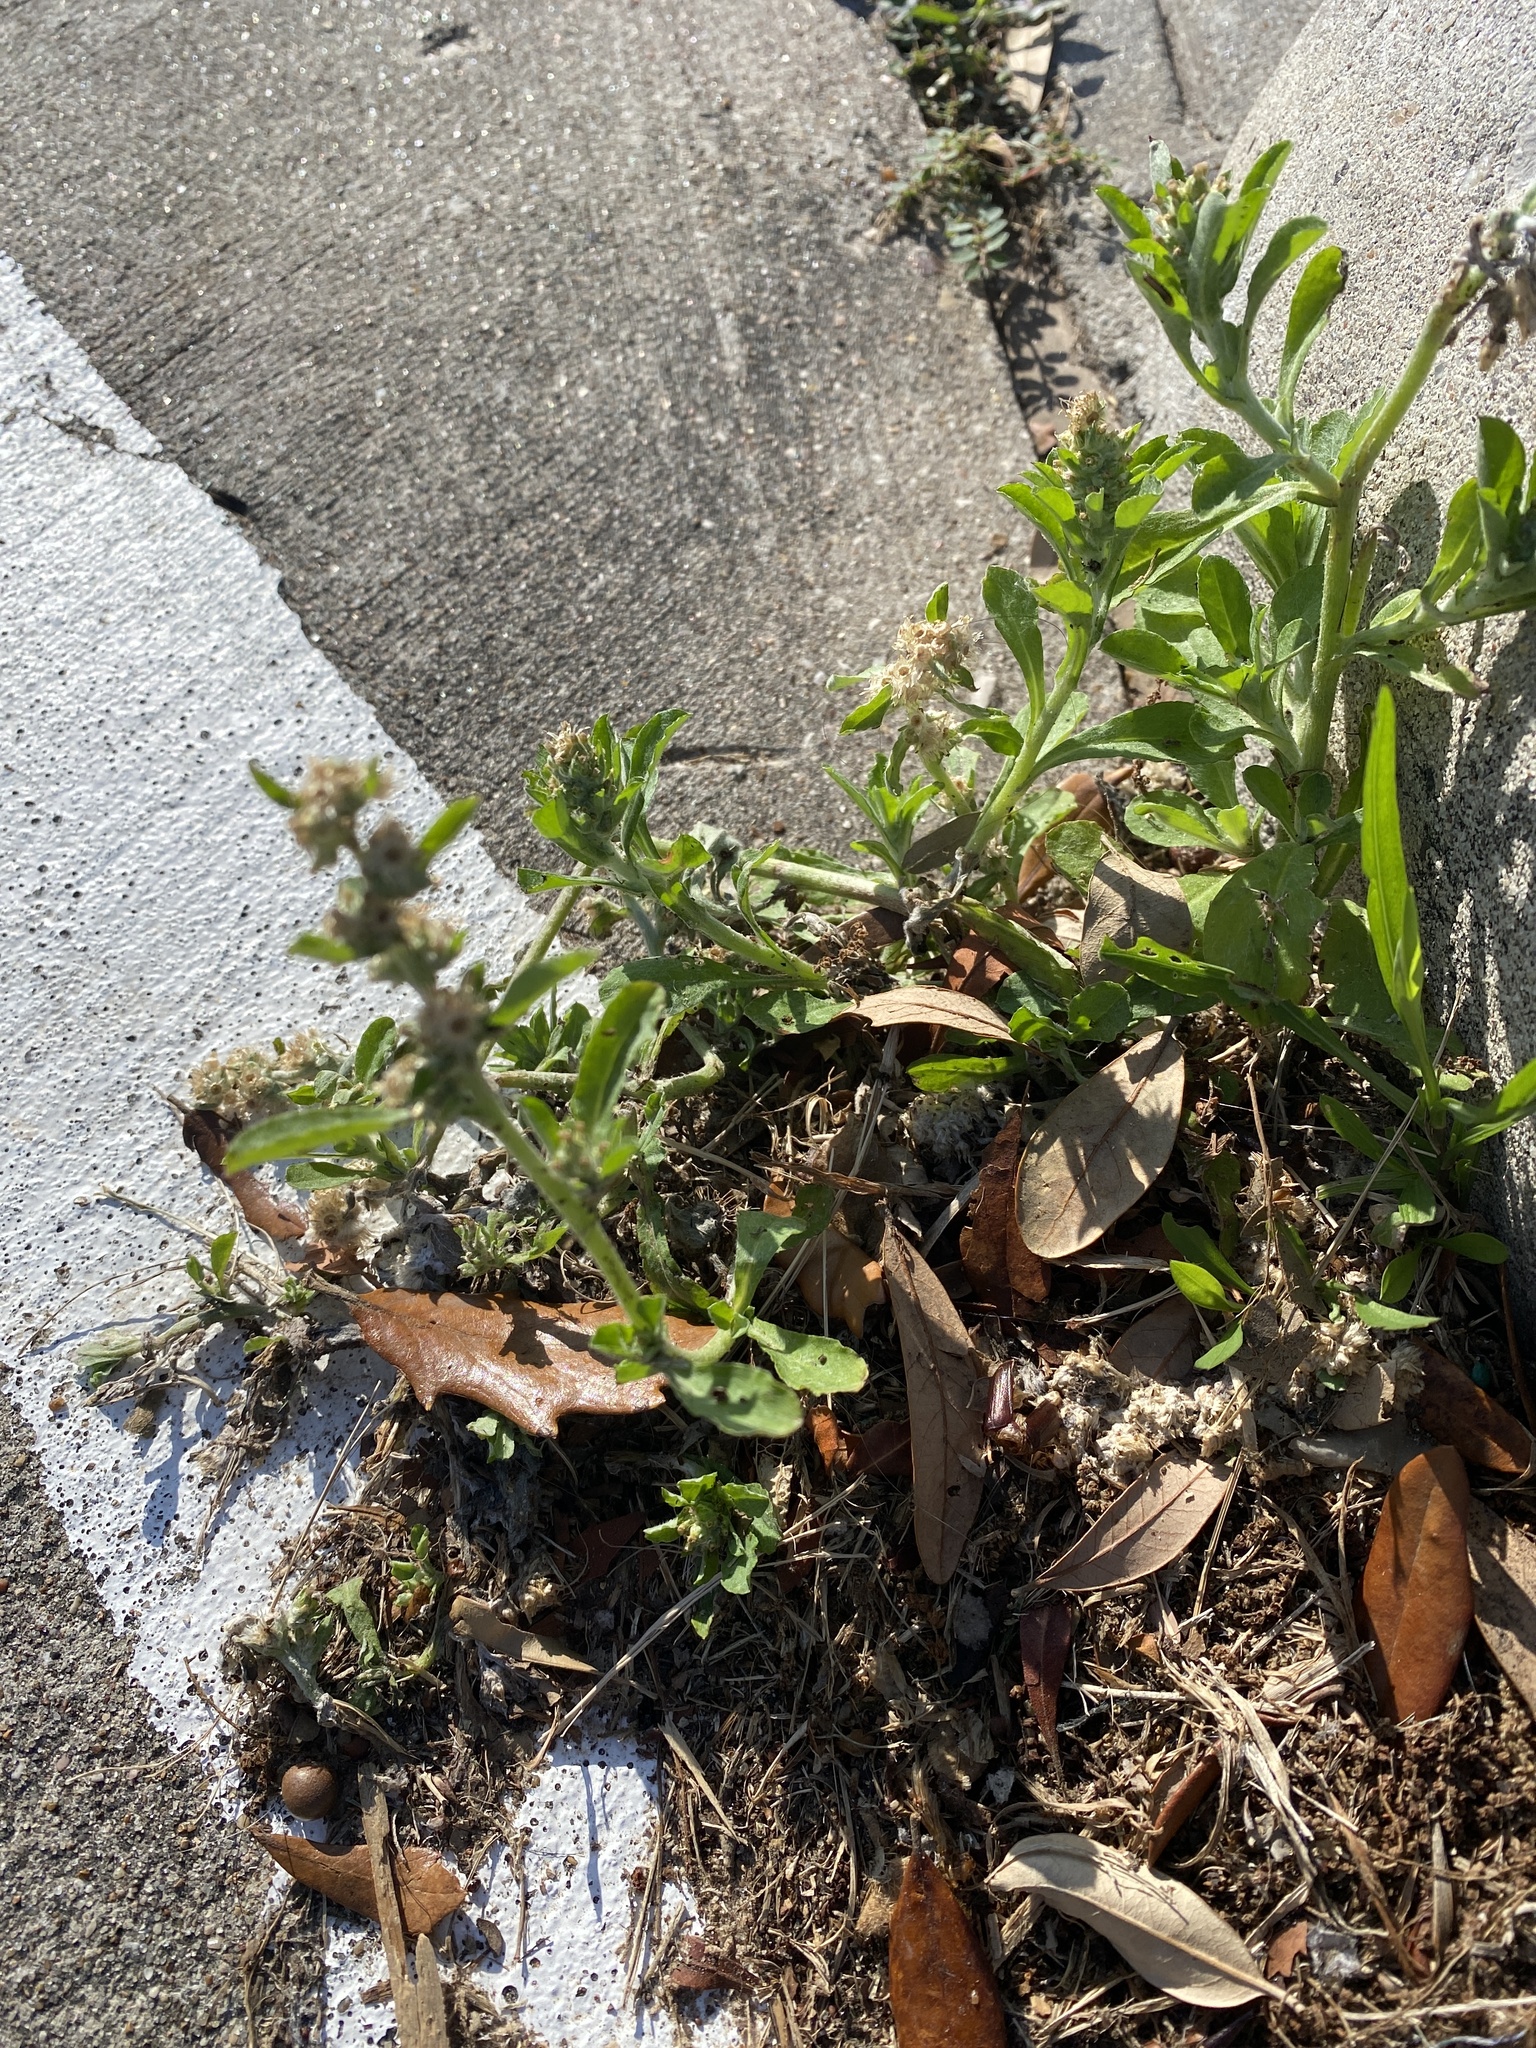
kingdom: Plantae
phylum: Tracheophyta
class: Magnoliopsida
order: Asterales
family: Asteraceae
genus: Gamochaeta
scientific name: Gamochaeta pensylvanica
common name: Pennsylvania everlasting
